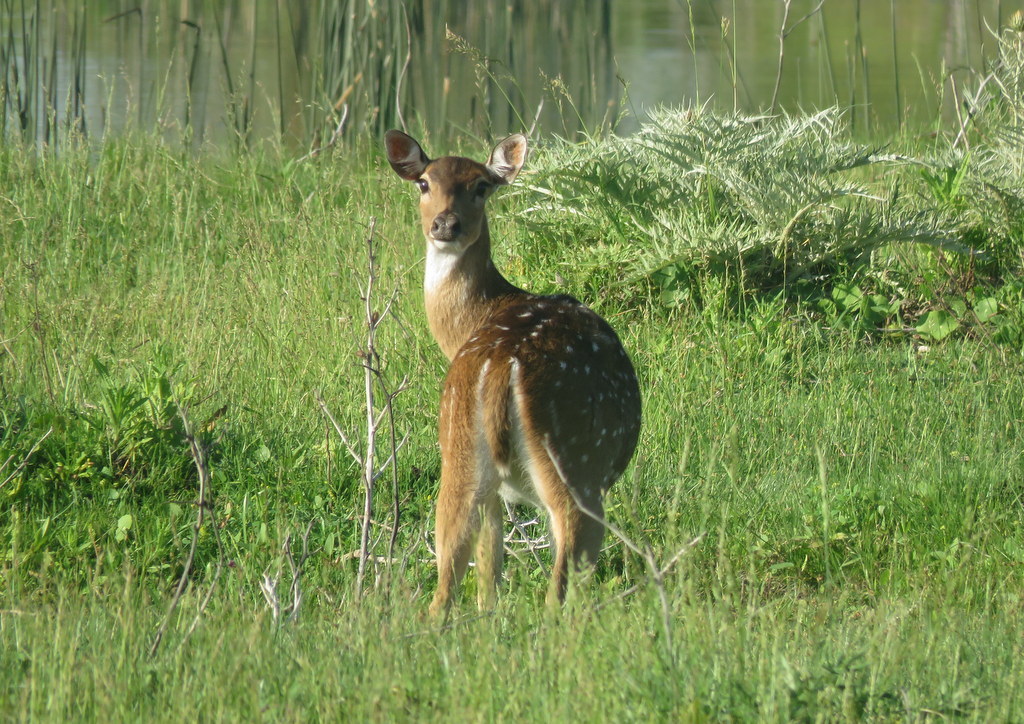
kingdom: Animalia
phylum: Chordata
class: Mammalia
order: Artiodactyla
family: Cervidae
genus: Axis
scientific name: Axis axis
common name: Chital
